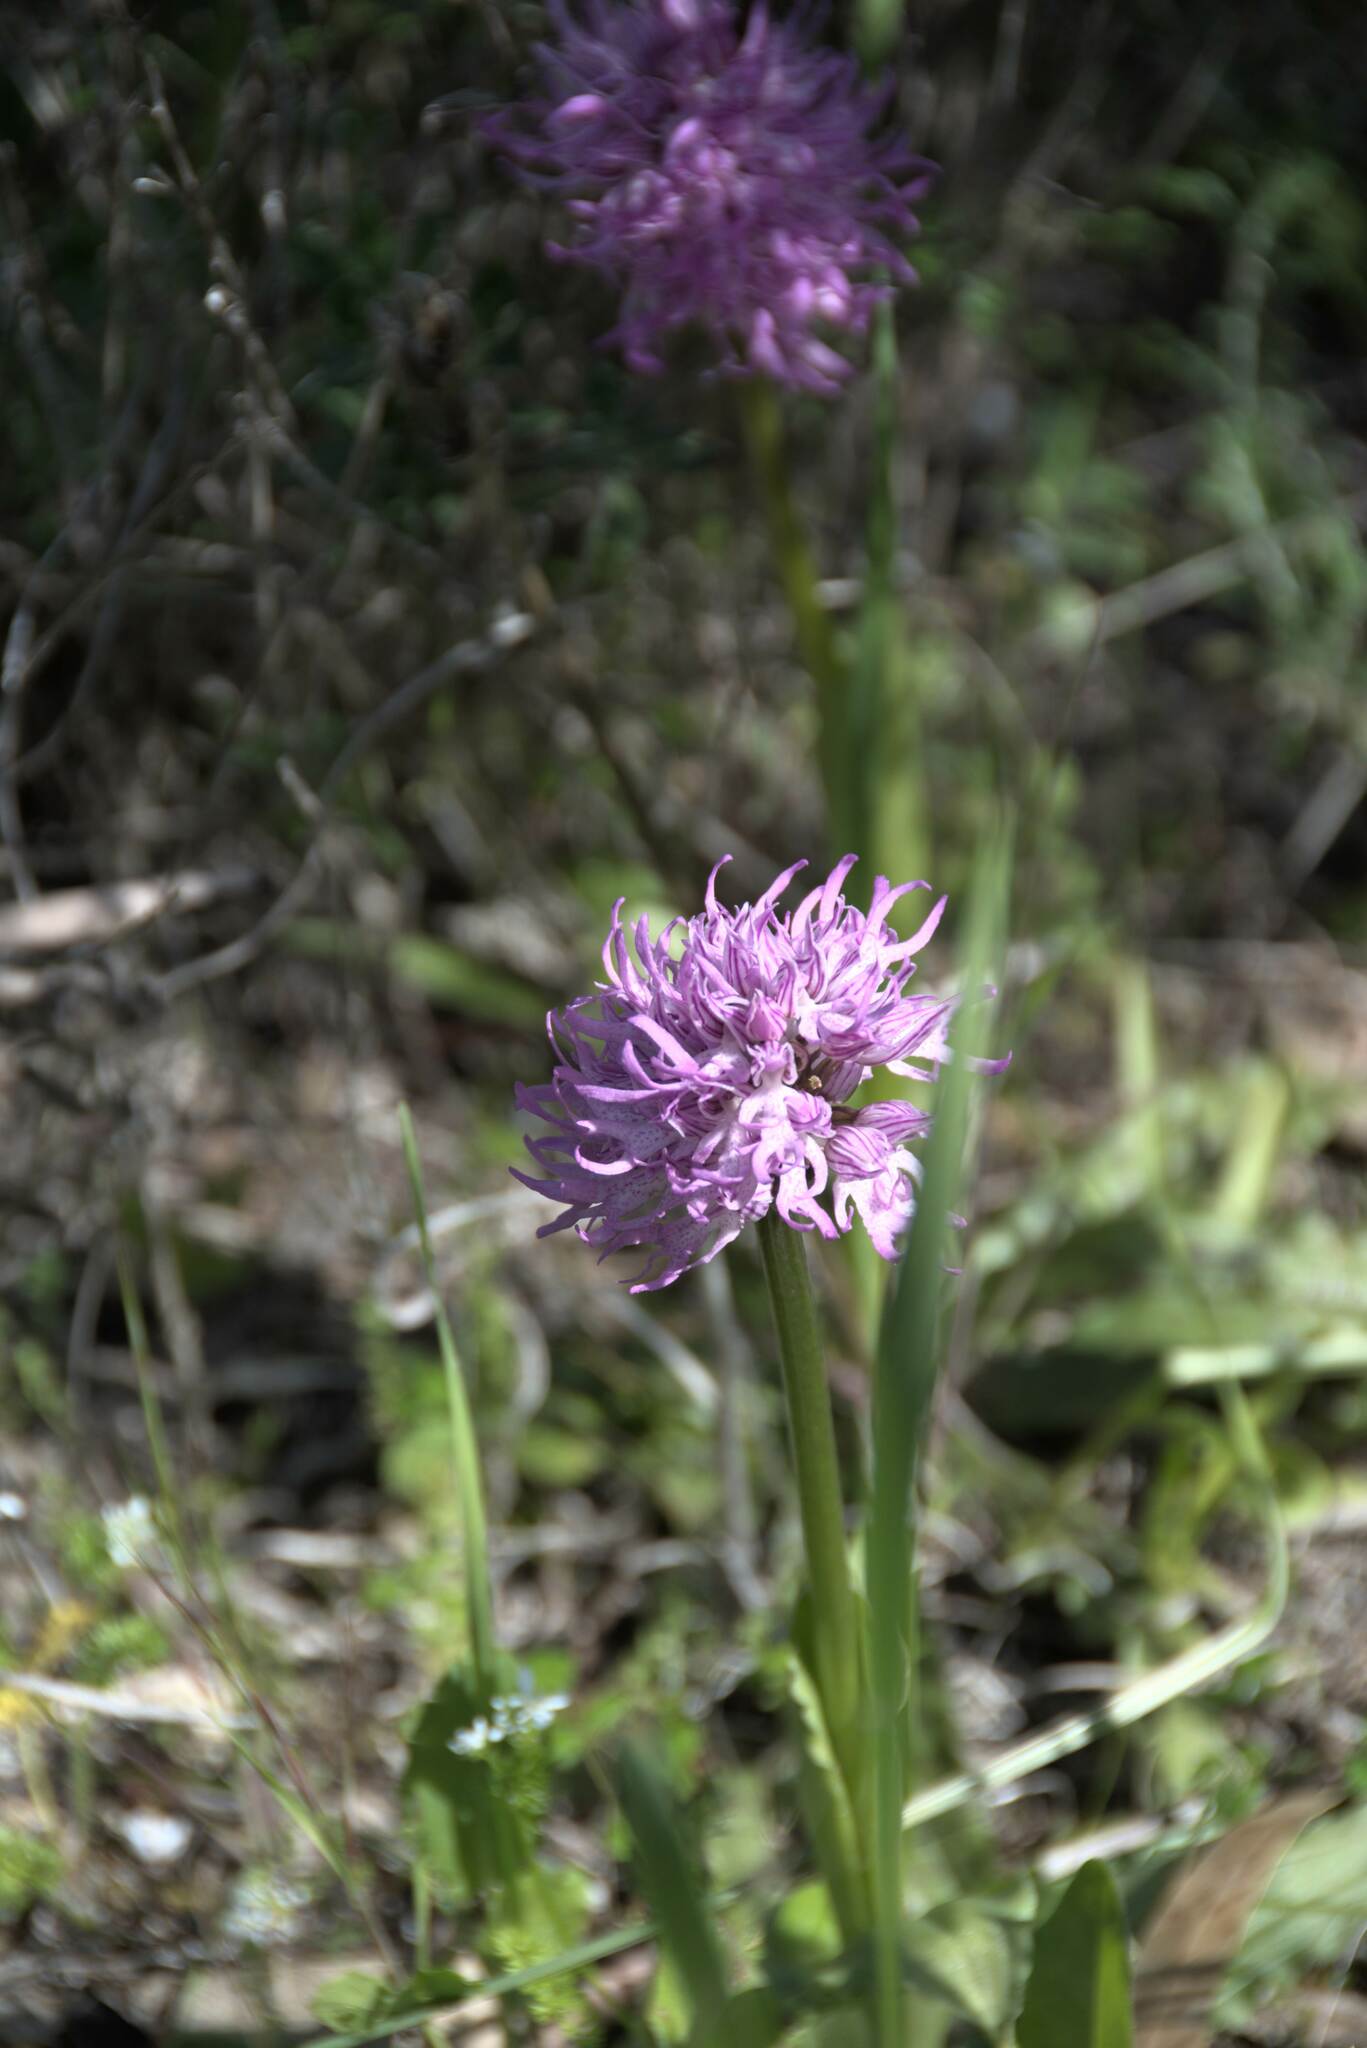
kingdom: Plantae
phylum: Tracheophyta
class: Liliopsida
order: Asparagales
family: Orchidaceae
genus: Orchis
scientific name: Orchis italica
